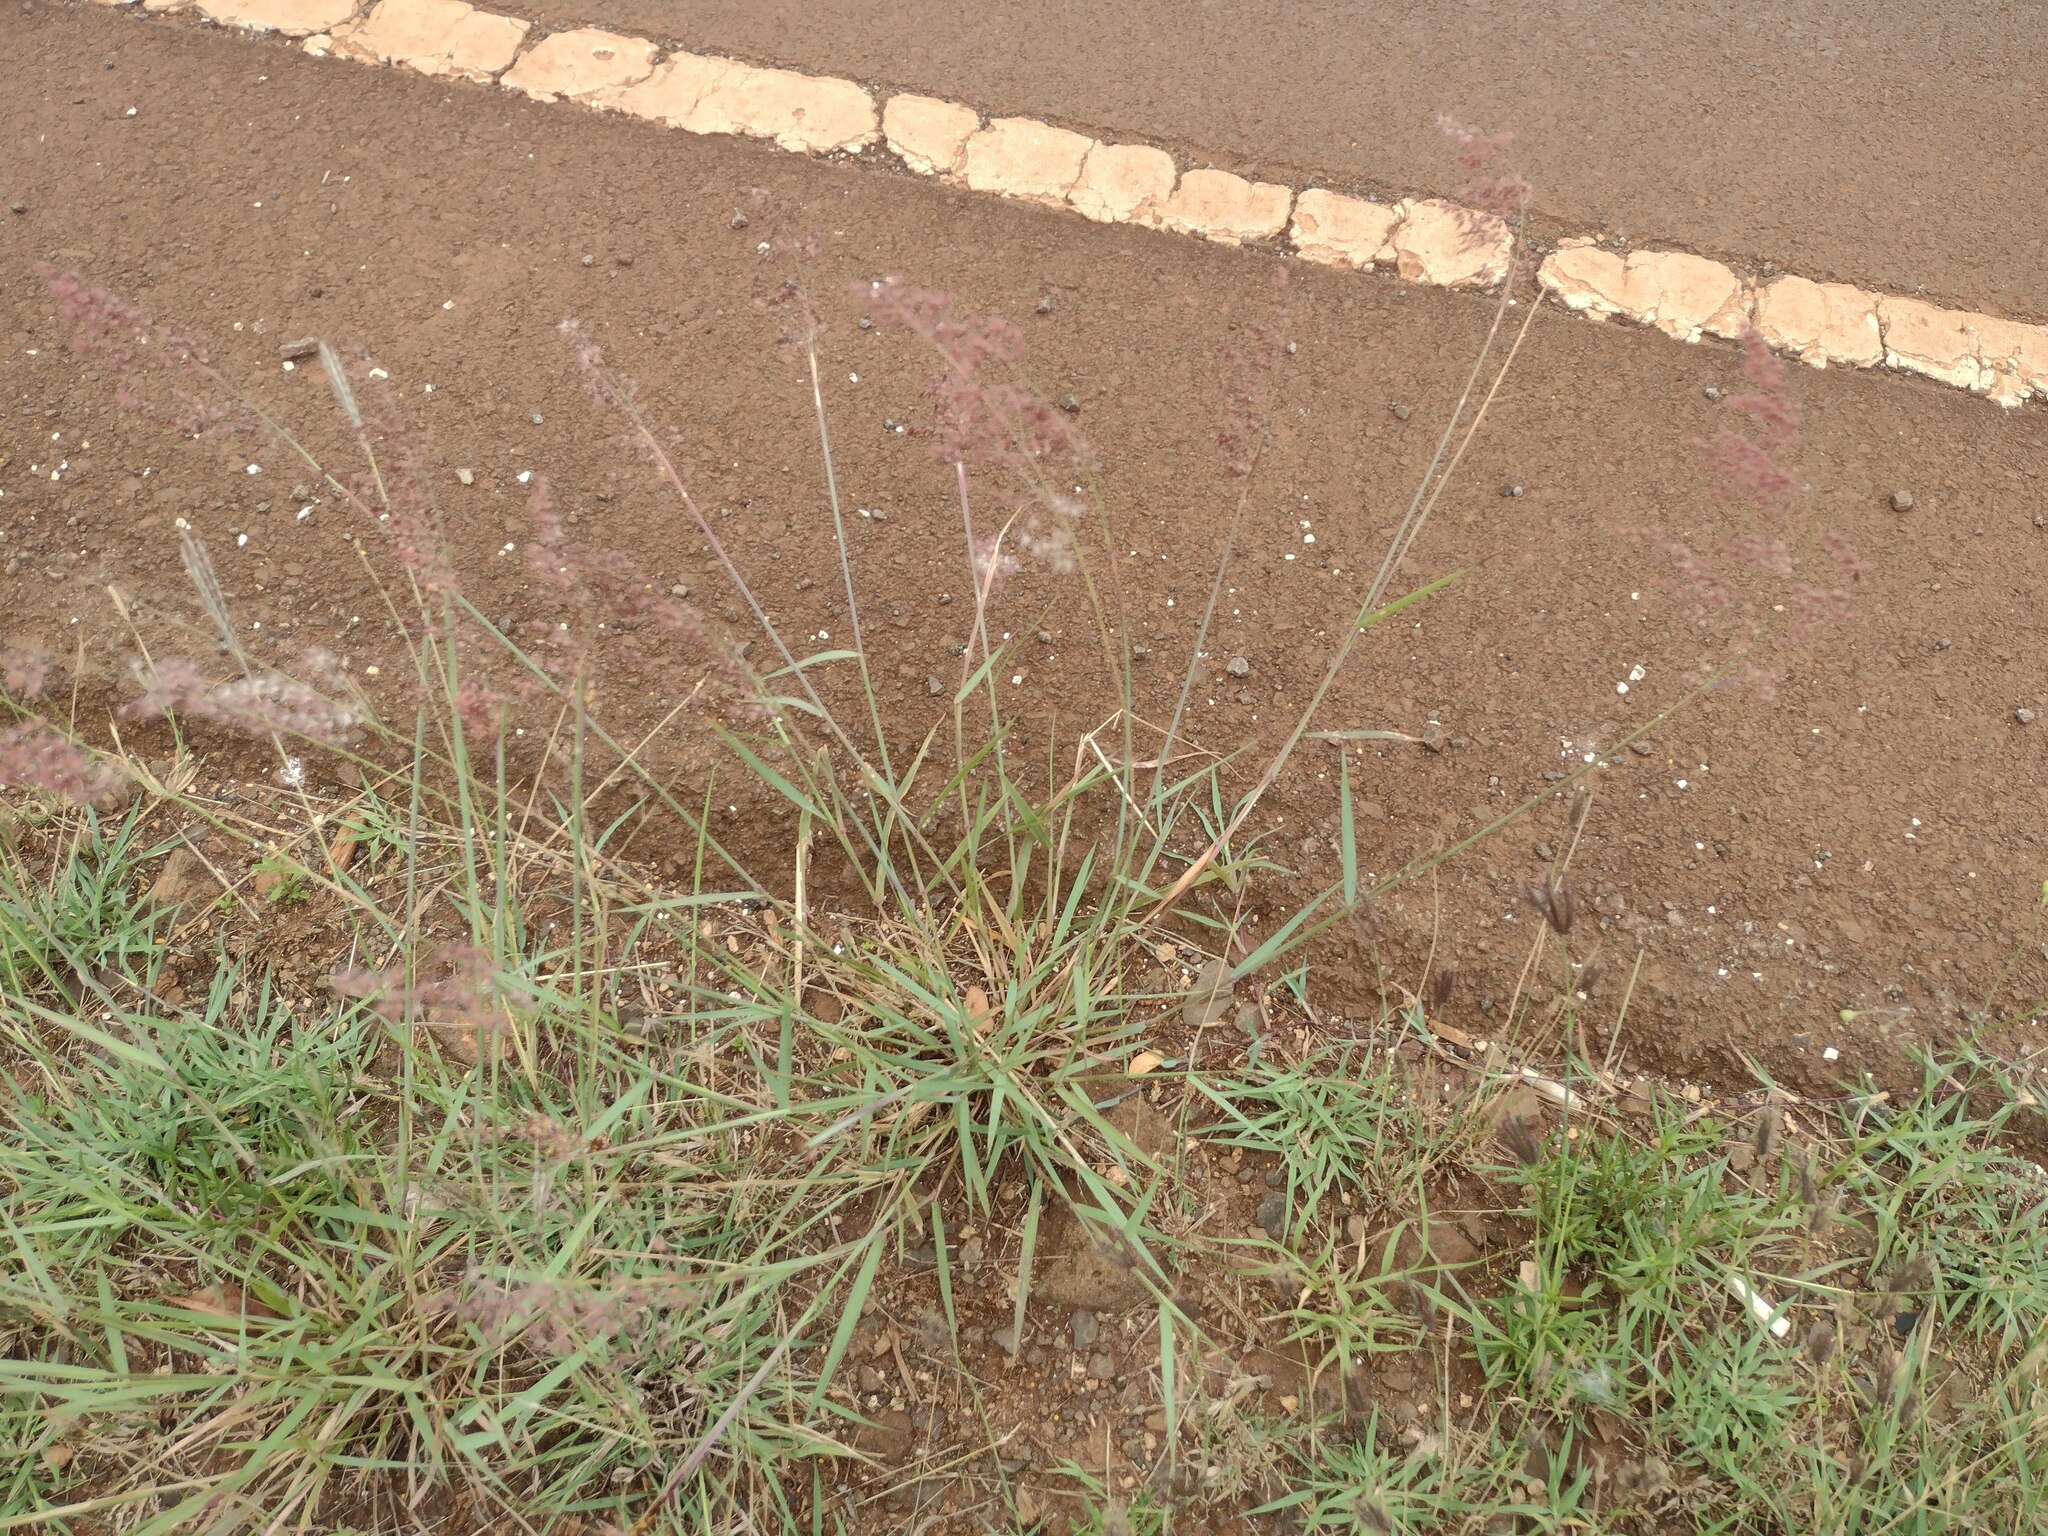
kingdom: Plantae
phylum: Tracheophyta
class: Liliopsida
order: Poales
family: Poaceae
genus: Melinis
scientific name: Melinis repens
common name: Rose natal grass
